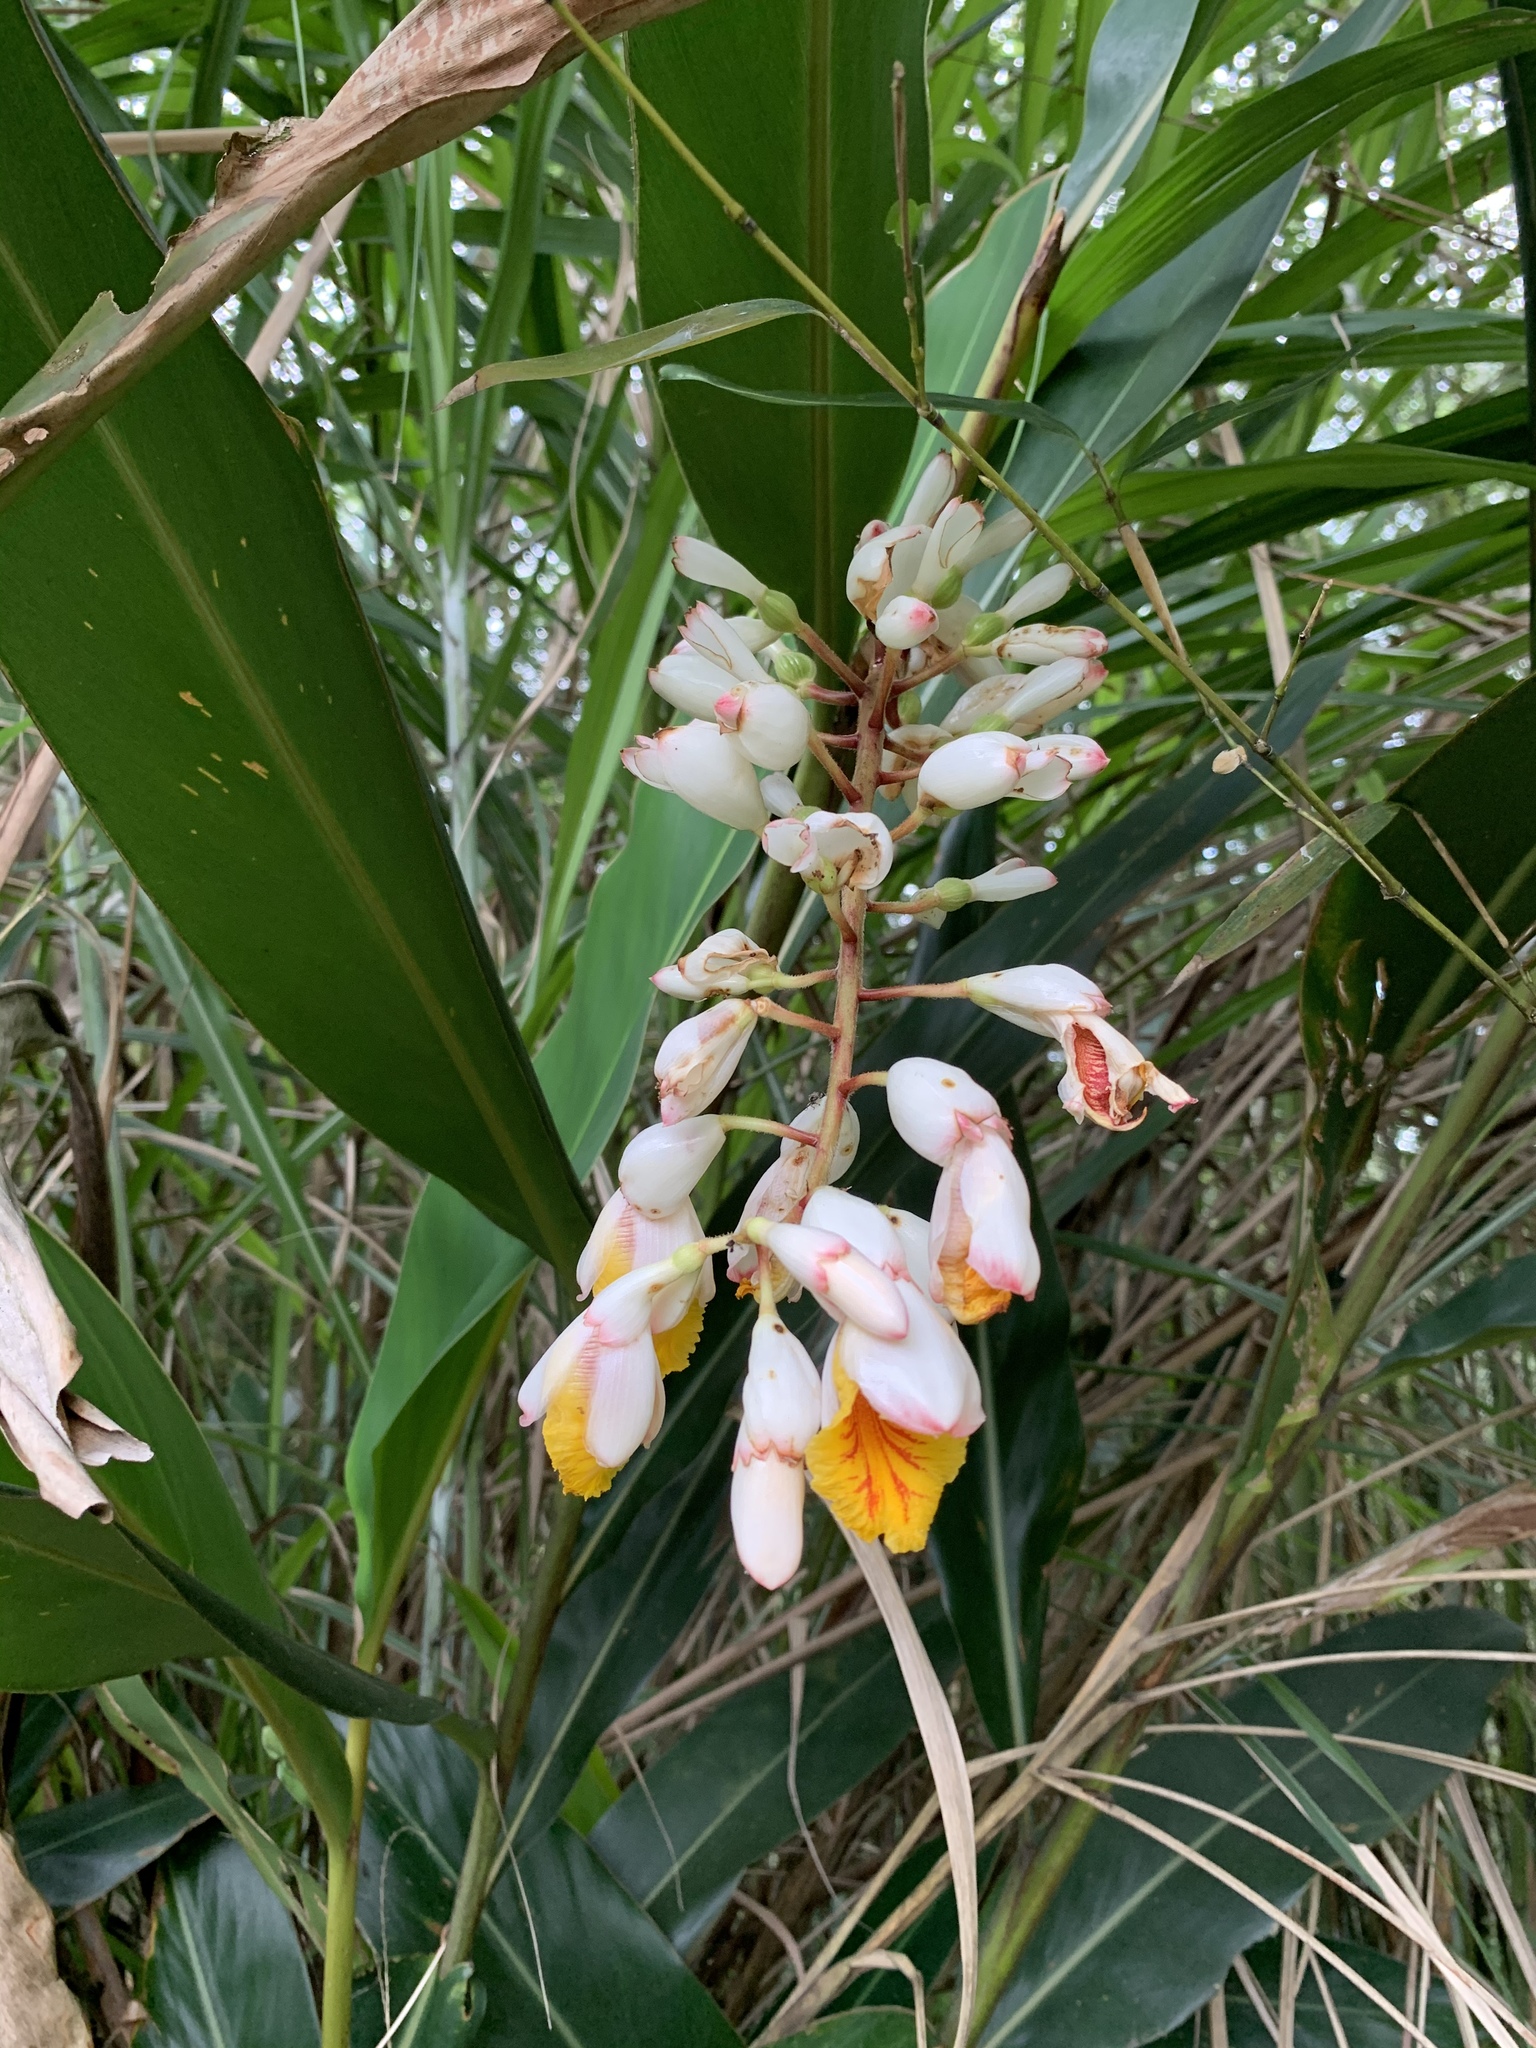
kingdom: Plantae
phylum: Tracheophyta
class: Liliopsida
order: Zingiberales
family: Zingiberaceae
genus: Alpinia
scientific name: Alpinia zerumbet
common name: Shellplant
